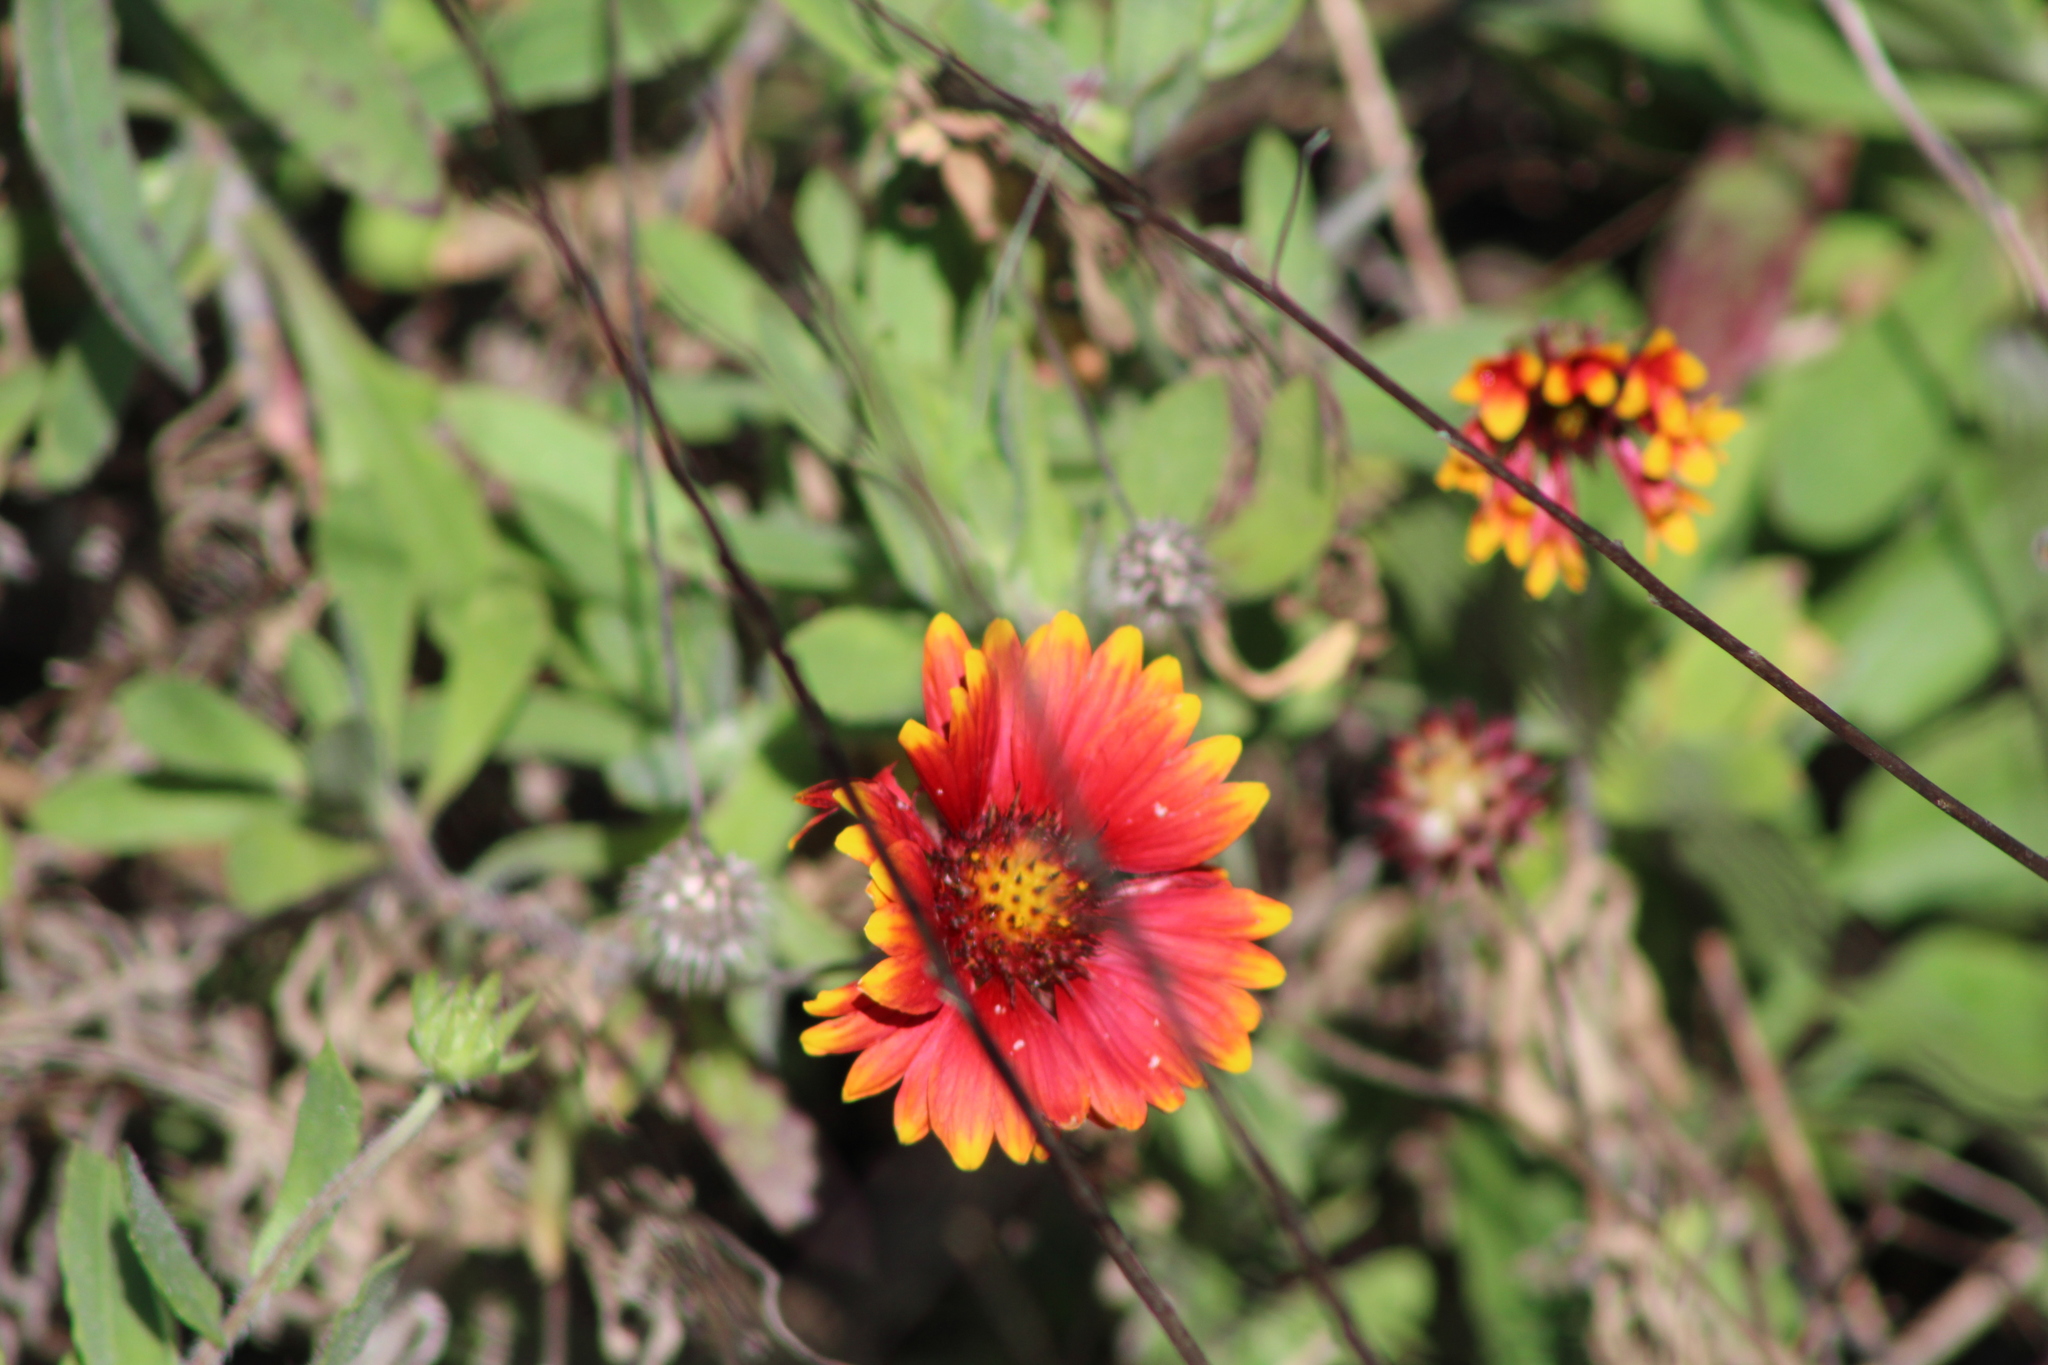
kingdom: Plantae
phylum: Tracheophyta
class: Magnoliopsida
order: Asterales
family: Asteraceae
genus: Gaillardia
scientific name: Gaillardia pulchella
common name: Firewheel
